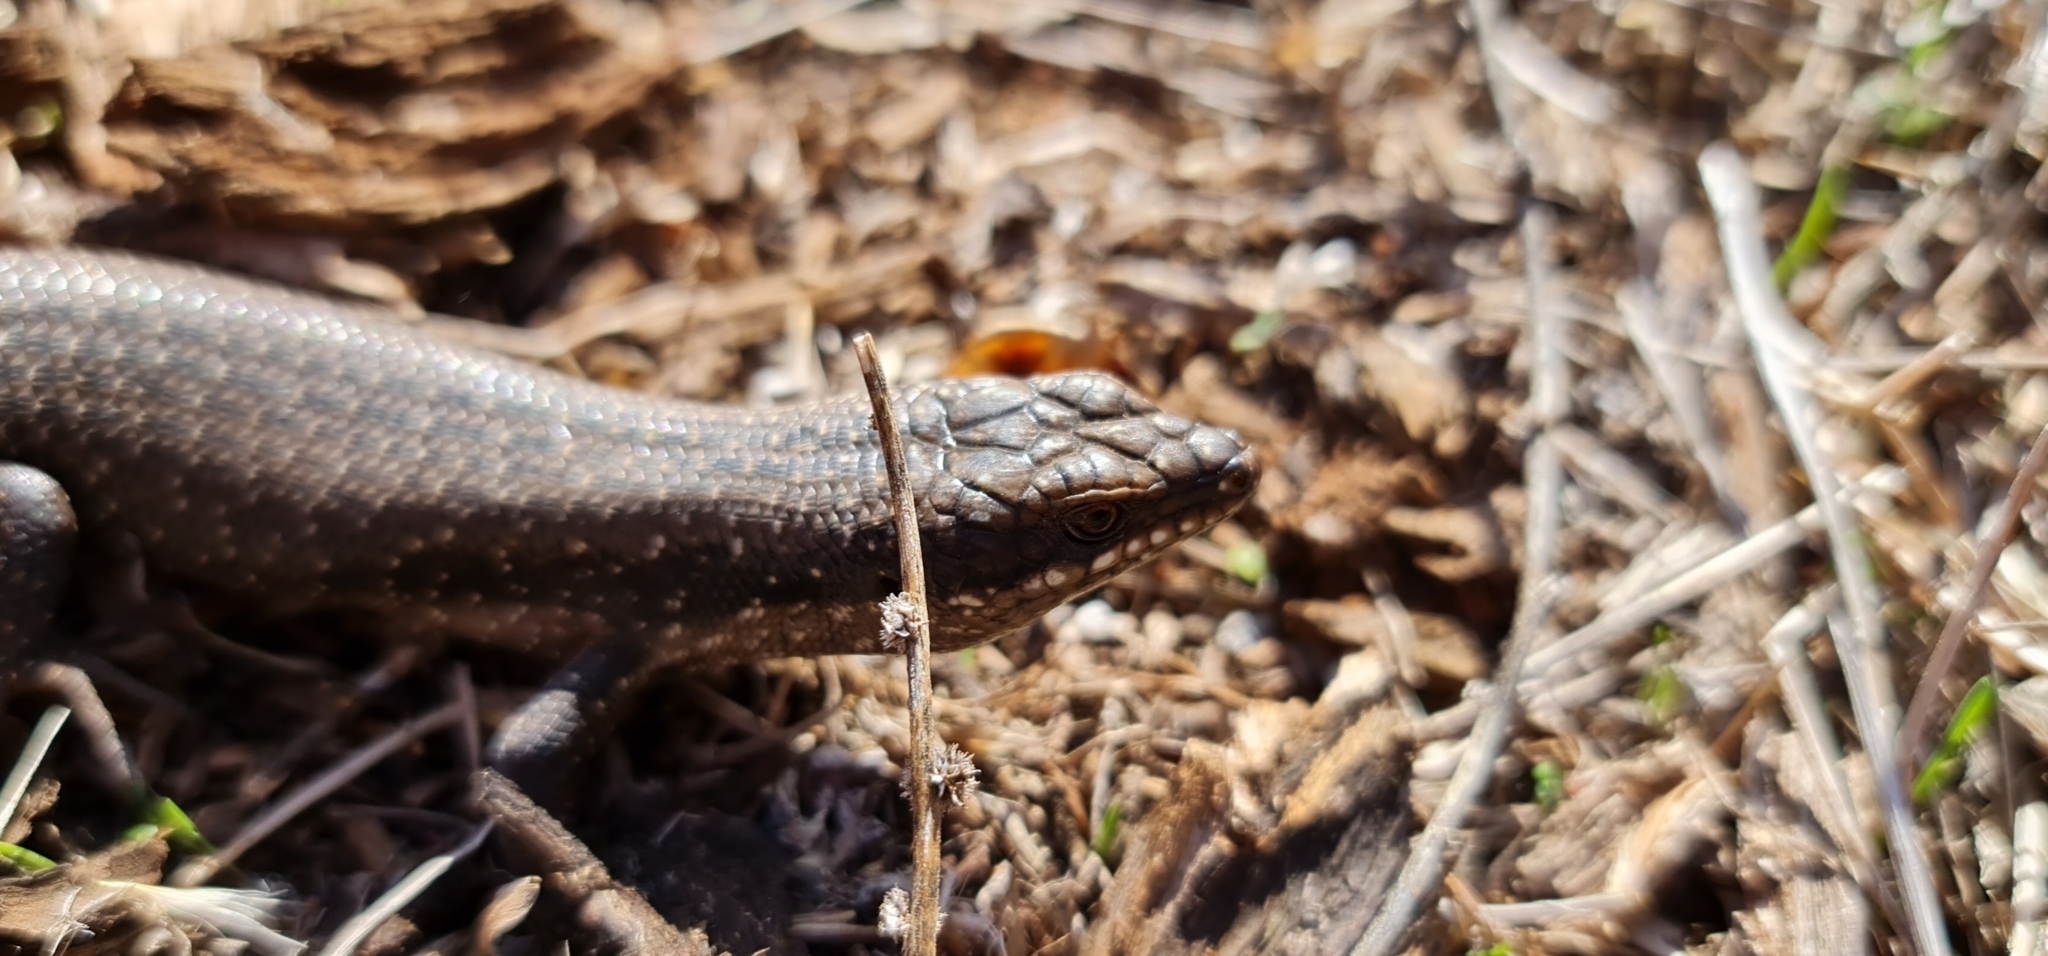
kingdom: Animalia
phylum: Chordata
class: Squamata
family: Scincidae
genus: Egernia
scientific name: Egernia striolata
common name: Tree skink
